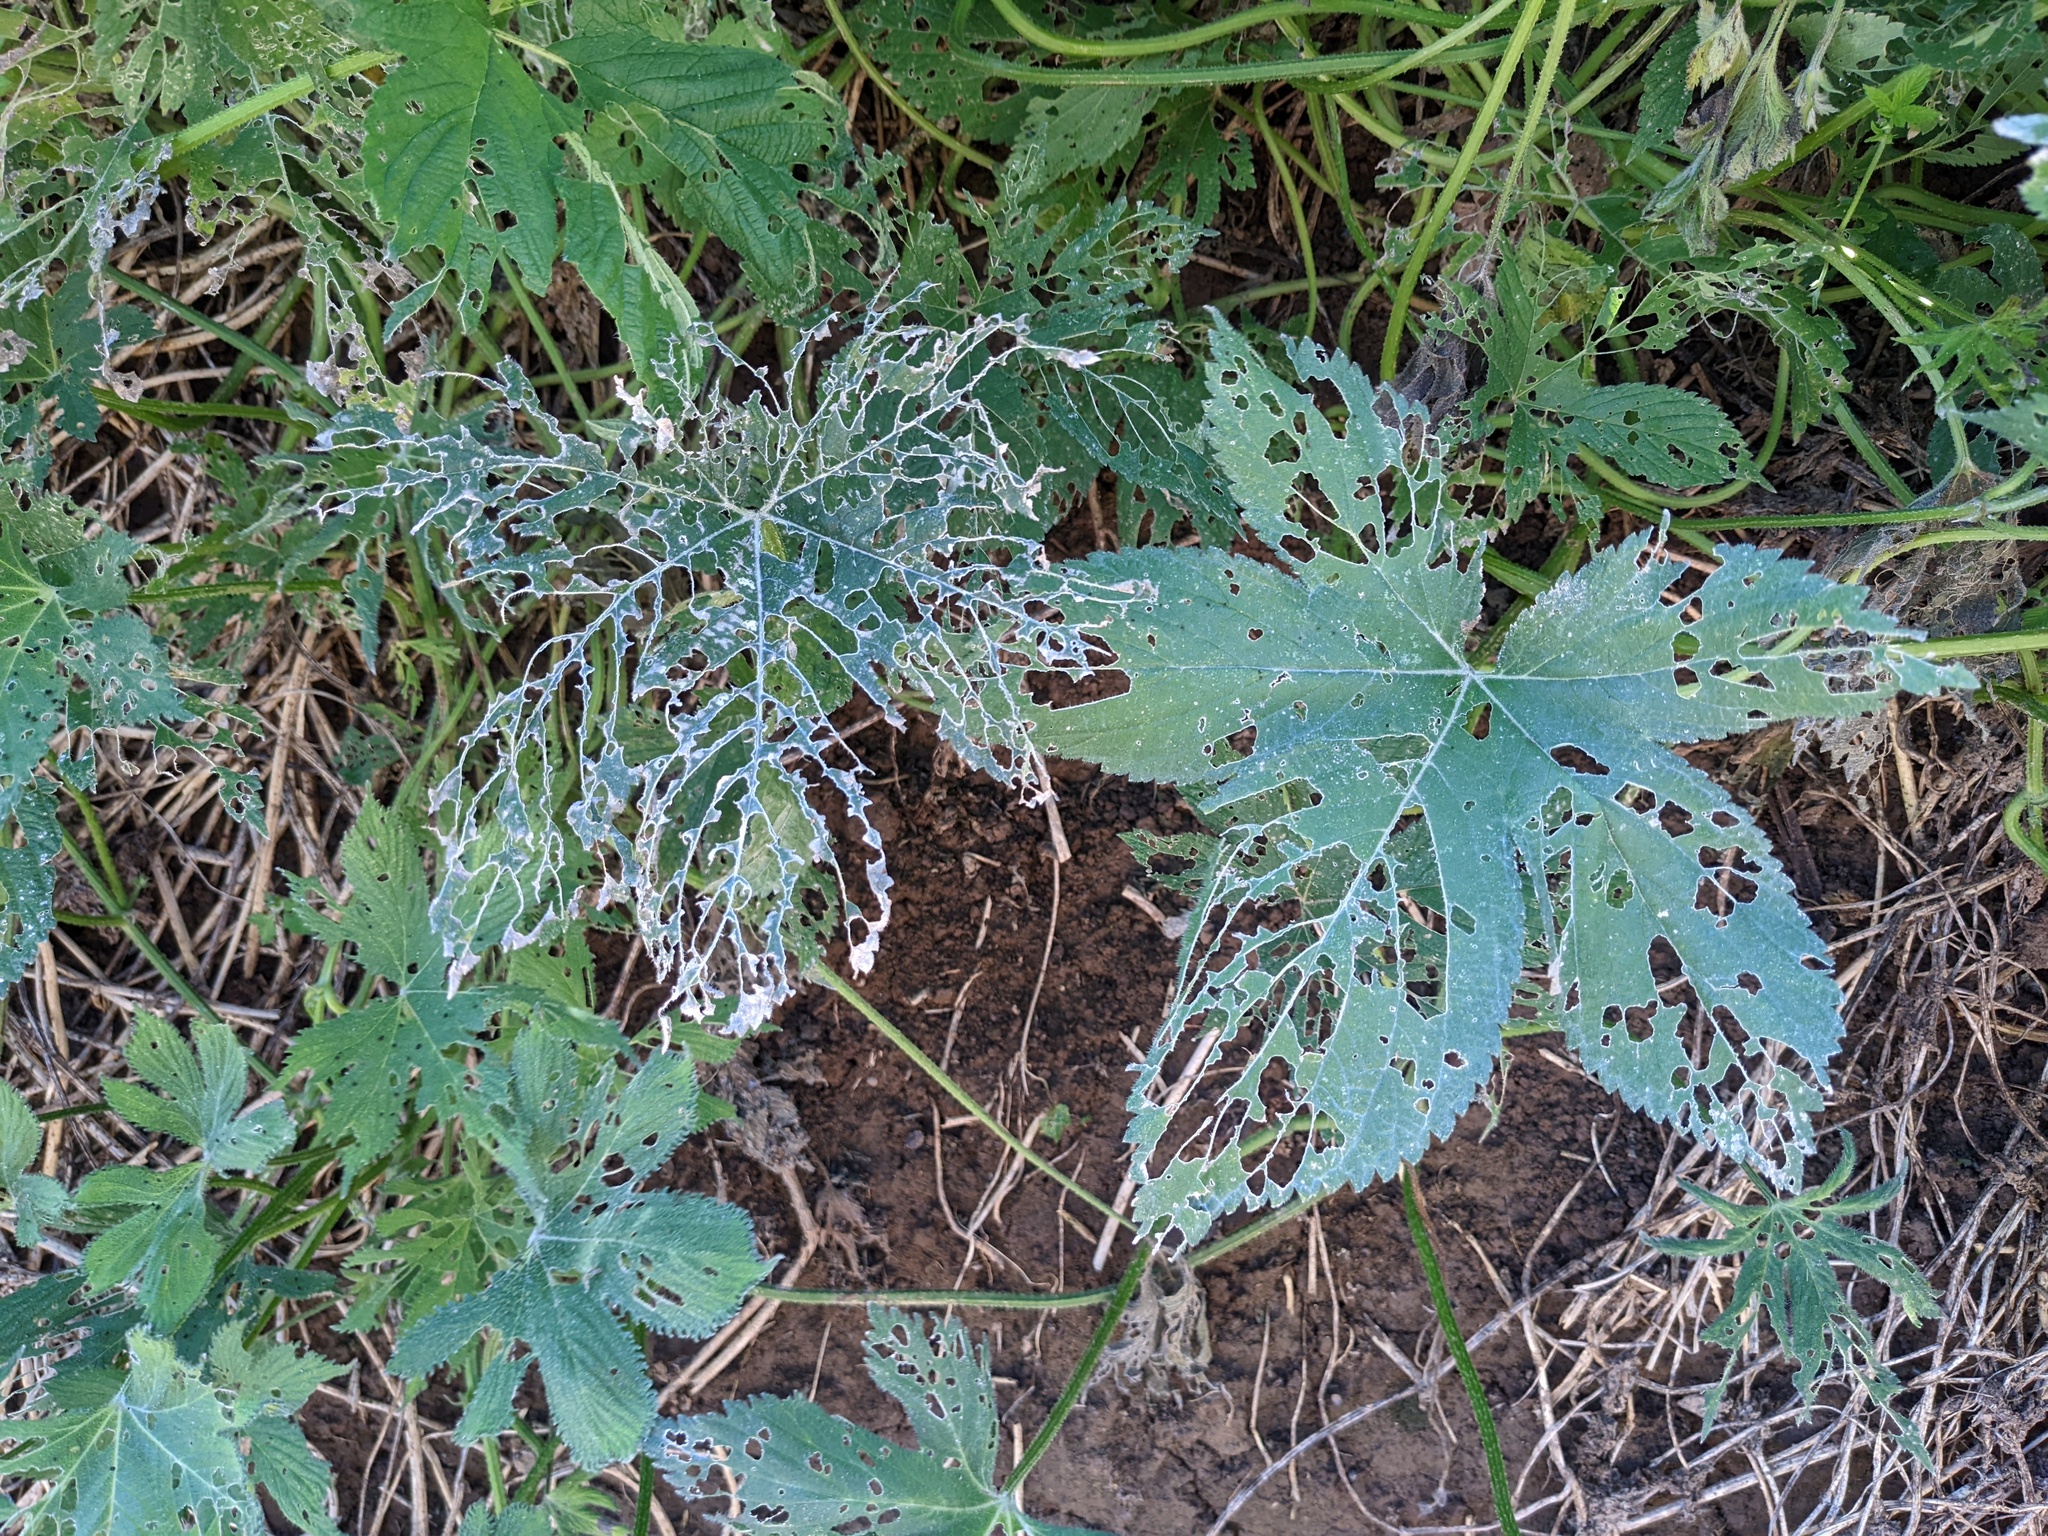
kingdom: Plantae
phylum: Tracheophyta
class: Magnoliopsida
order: Rosales
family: Cannabaceae
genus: Humulus
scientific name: Humulus scandens
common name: Japanese hop
